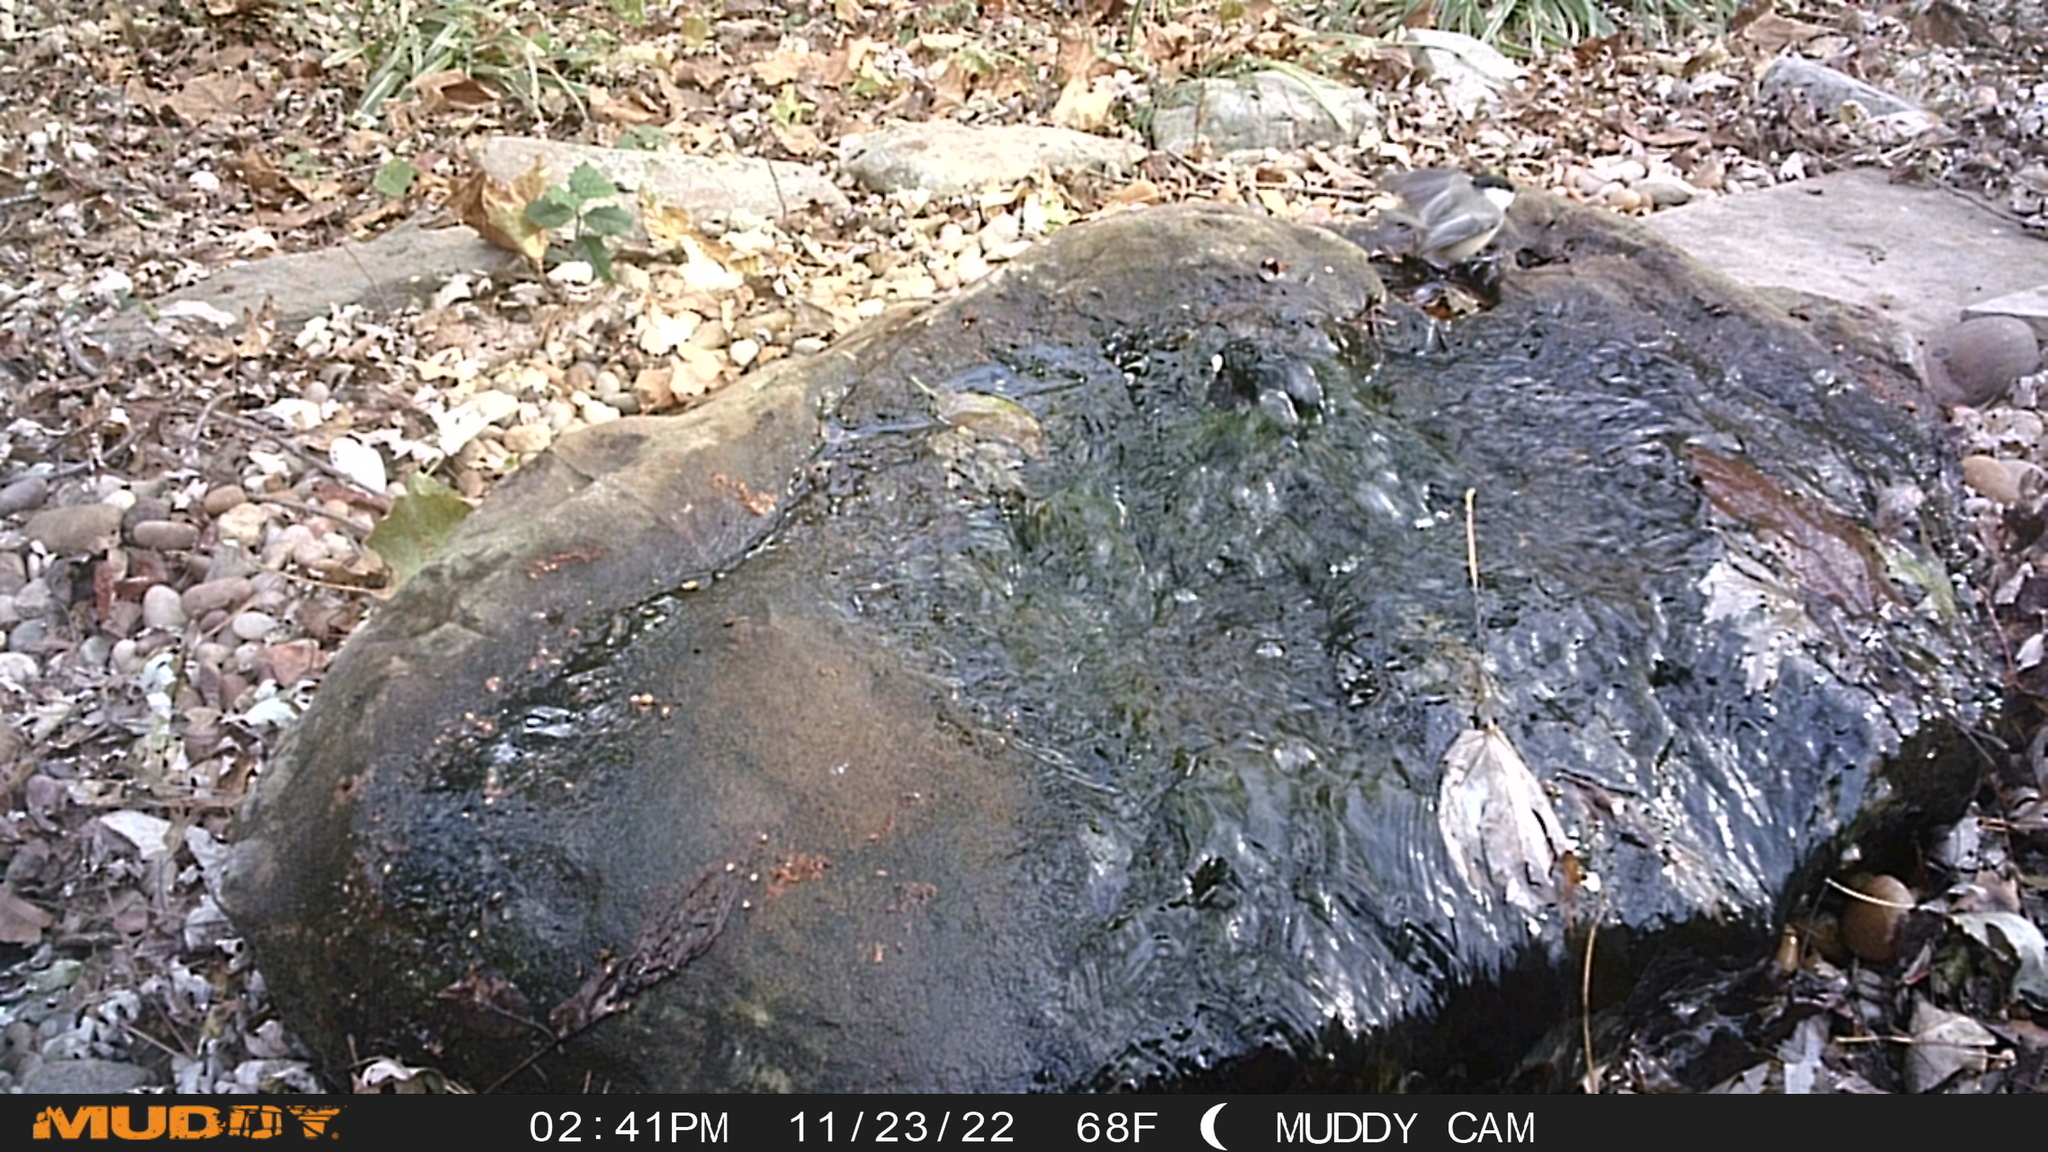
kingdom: Animalia
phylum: Chordata
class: Aves
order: Passeriformes
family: Paridae
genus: Poecile
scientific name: Poecile carolinensis
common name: Carolina chickadee
